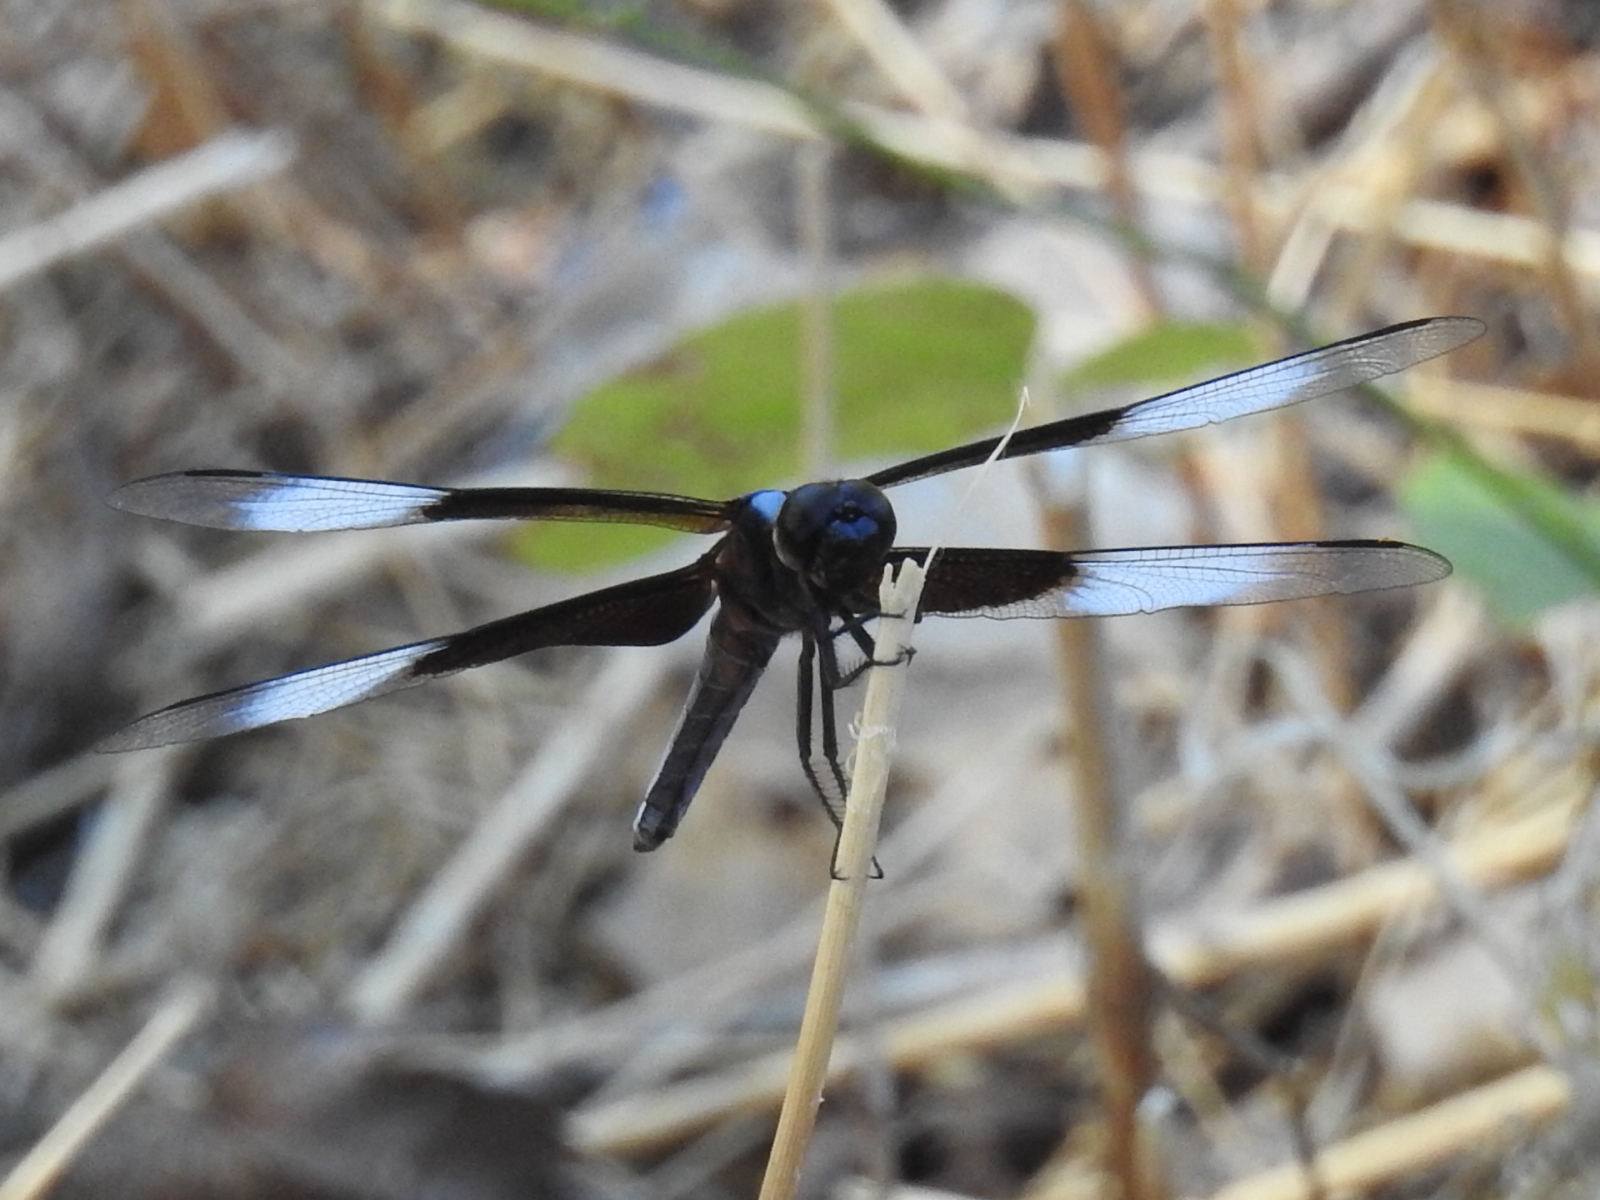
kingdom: Animalia
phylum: Arthropoda
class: Insecta
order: Odonata
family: Libellulidae
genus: Libellula
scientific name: Libellula luctuosa
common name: Widow skimmer
